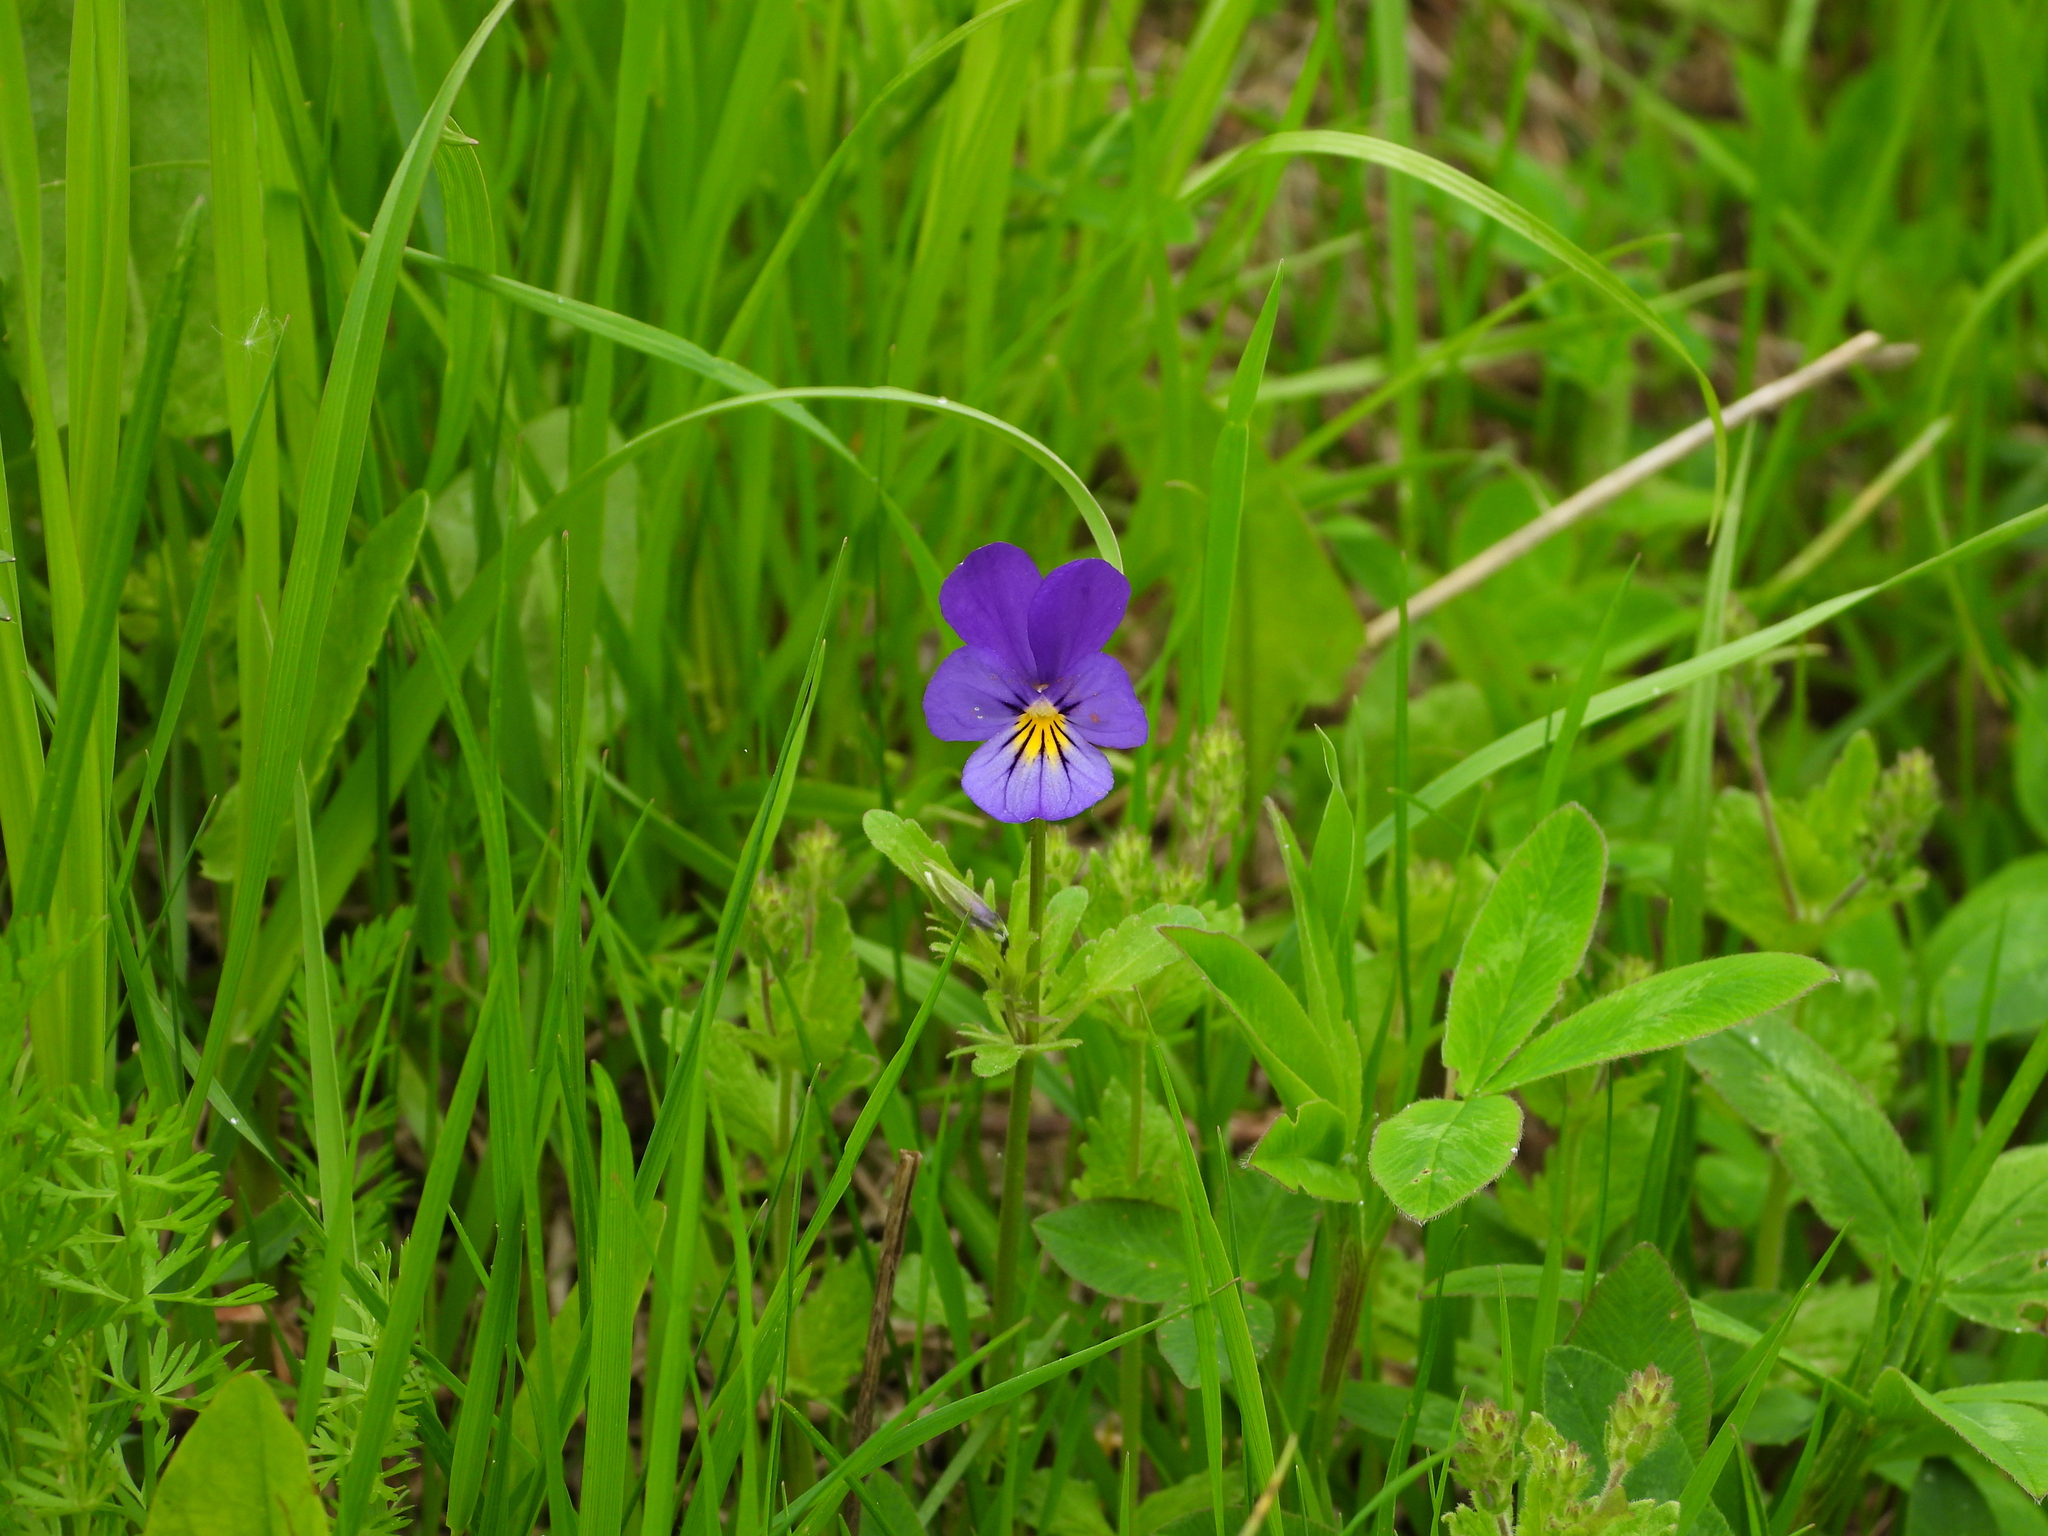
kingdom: Plantae
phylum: Tracheophyta
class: Magnoliopsida
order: Malpighiales
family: Violaceae
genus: Viola
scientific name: Viola tricolor
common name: Pansy
